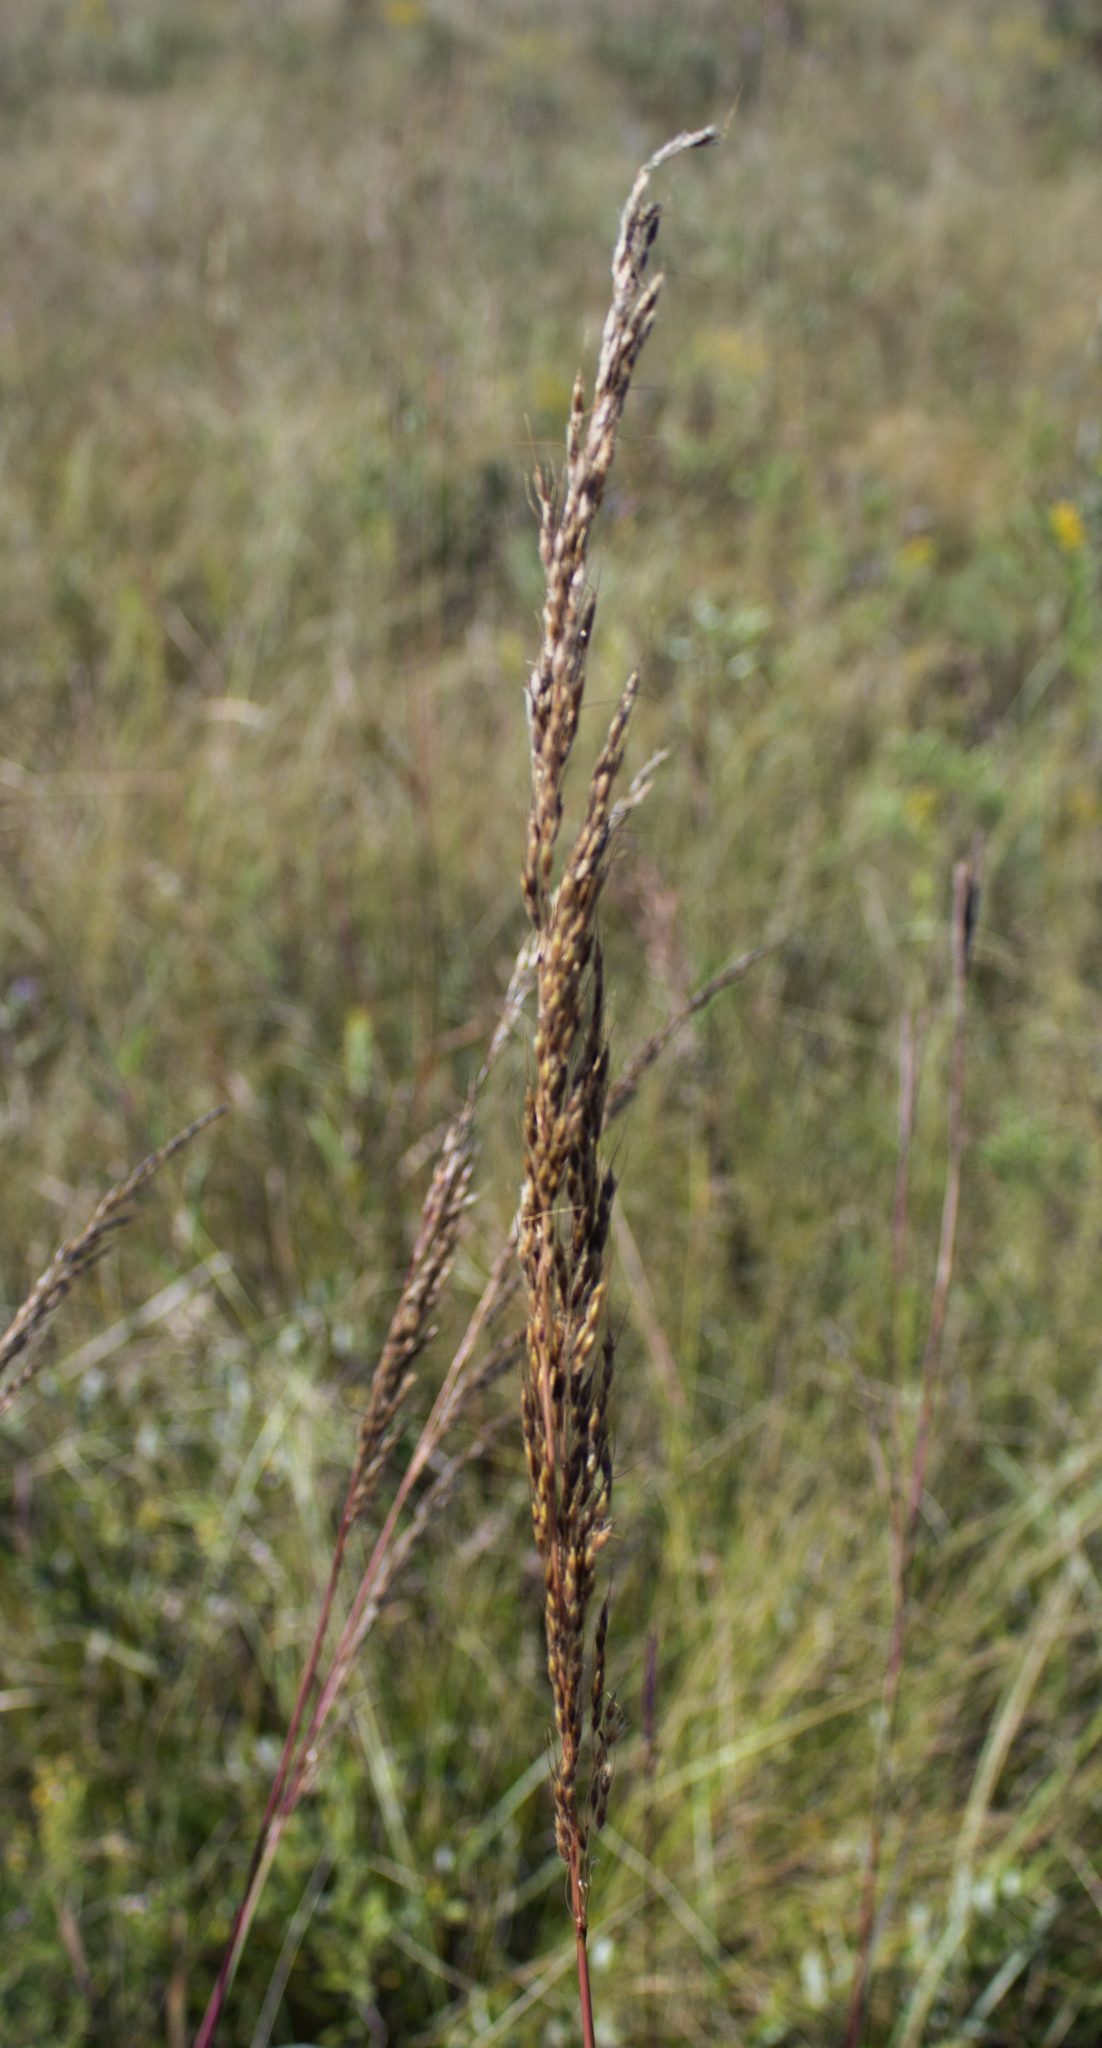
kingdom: Plantae
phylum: Tracheophyta
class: Liliopsida
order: Poales
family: Poaceae
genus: Sorghastrum
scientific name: Sorghastrum nutans
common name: Indian grass
